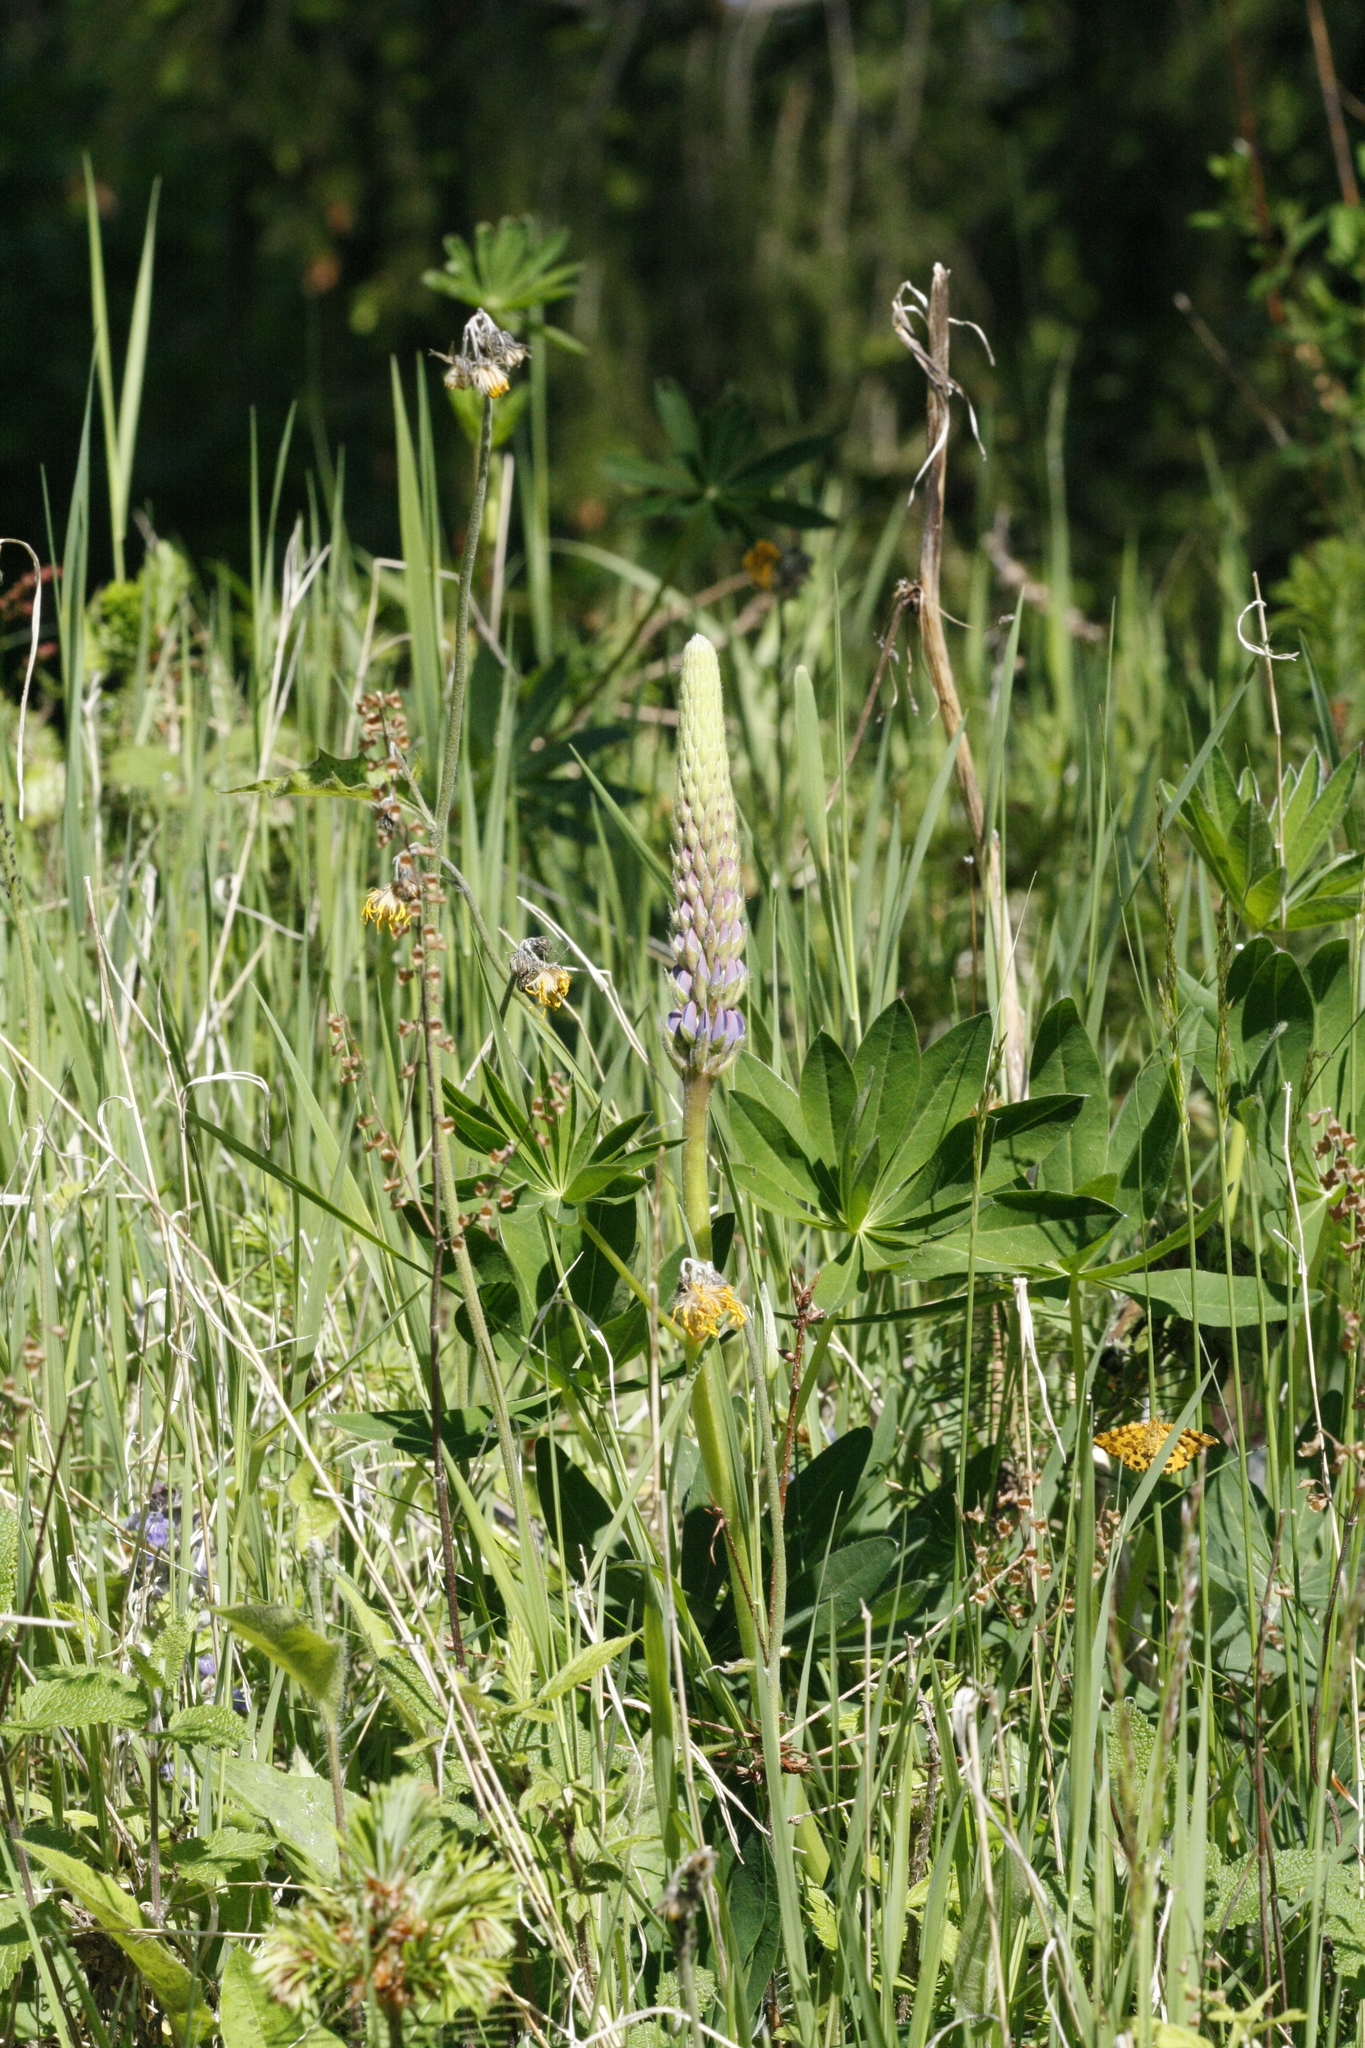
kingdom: Plantae
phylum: Tracheophyta
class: Magnoliopsida
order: Fabales
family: Fabaceae
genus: Lupinus
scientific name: Lupinus polyphyllus
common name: Garden lupin
